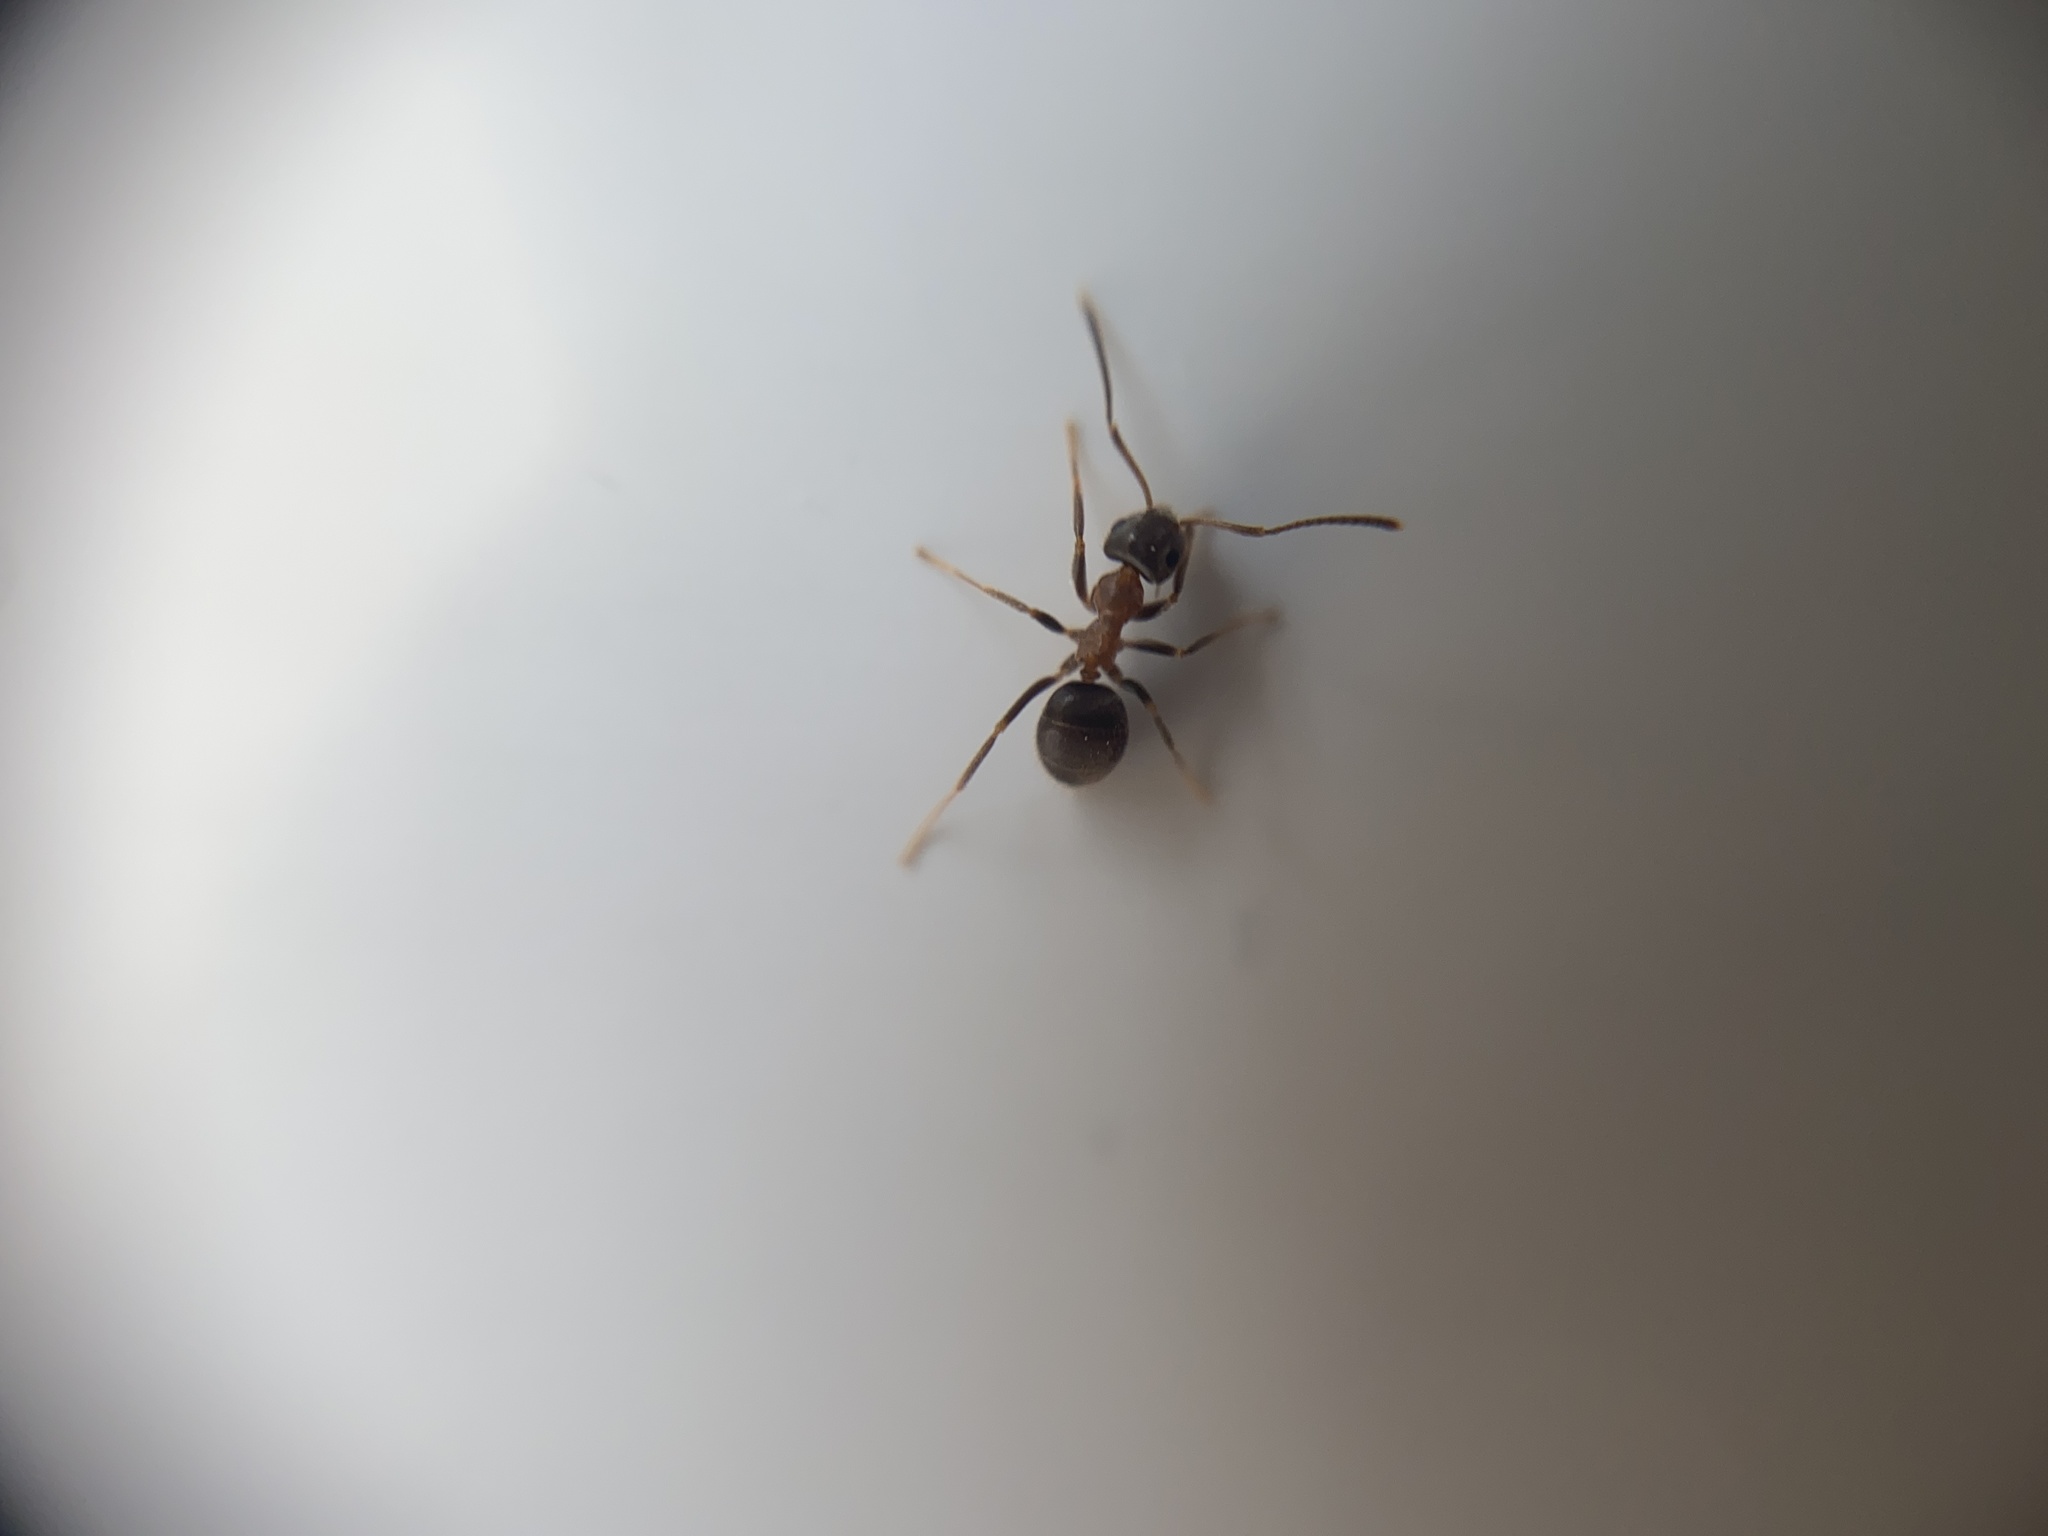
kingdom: Animalia
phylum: Arthropoda
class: Insecta
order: Hymenoptera
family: Formicidae
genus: Lasius
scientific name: Lasius emarginatus
